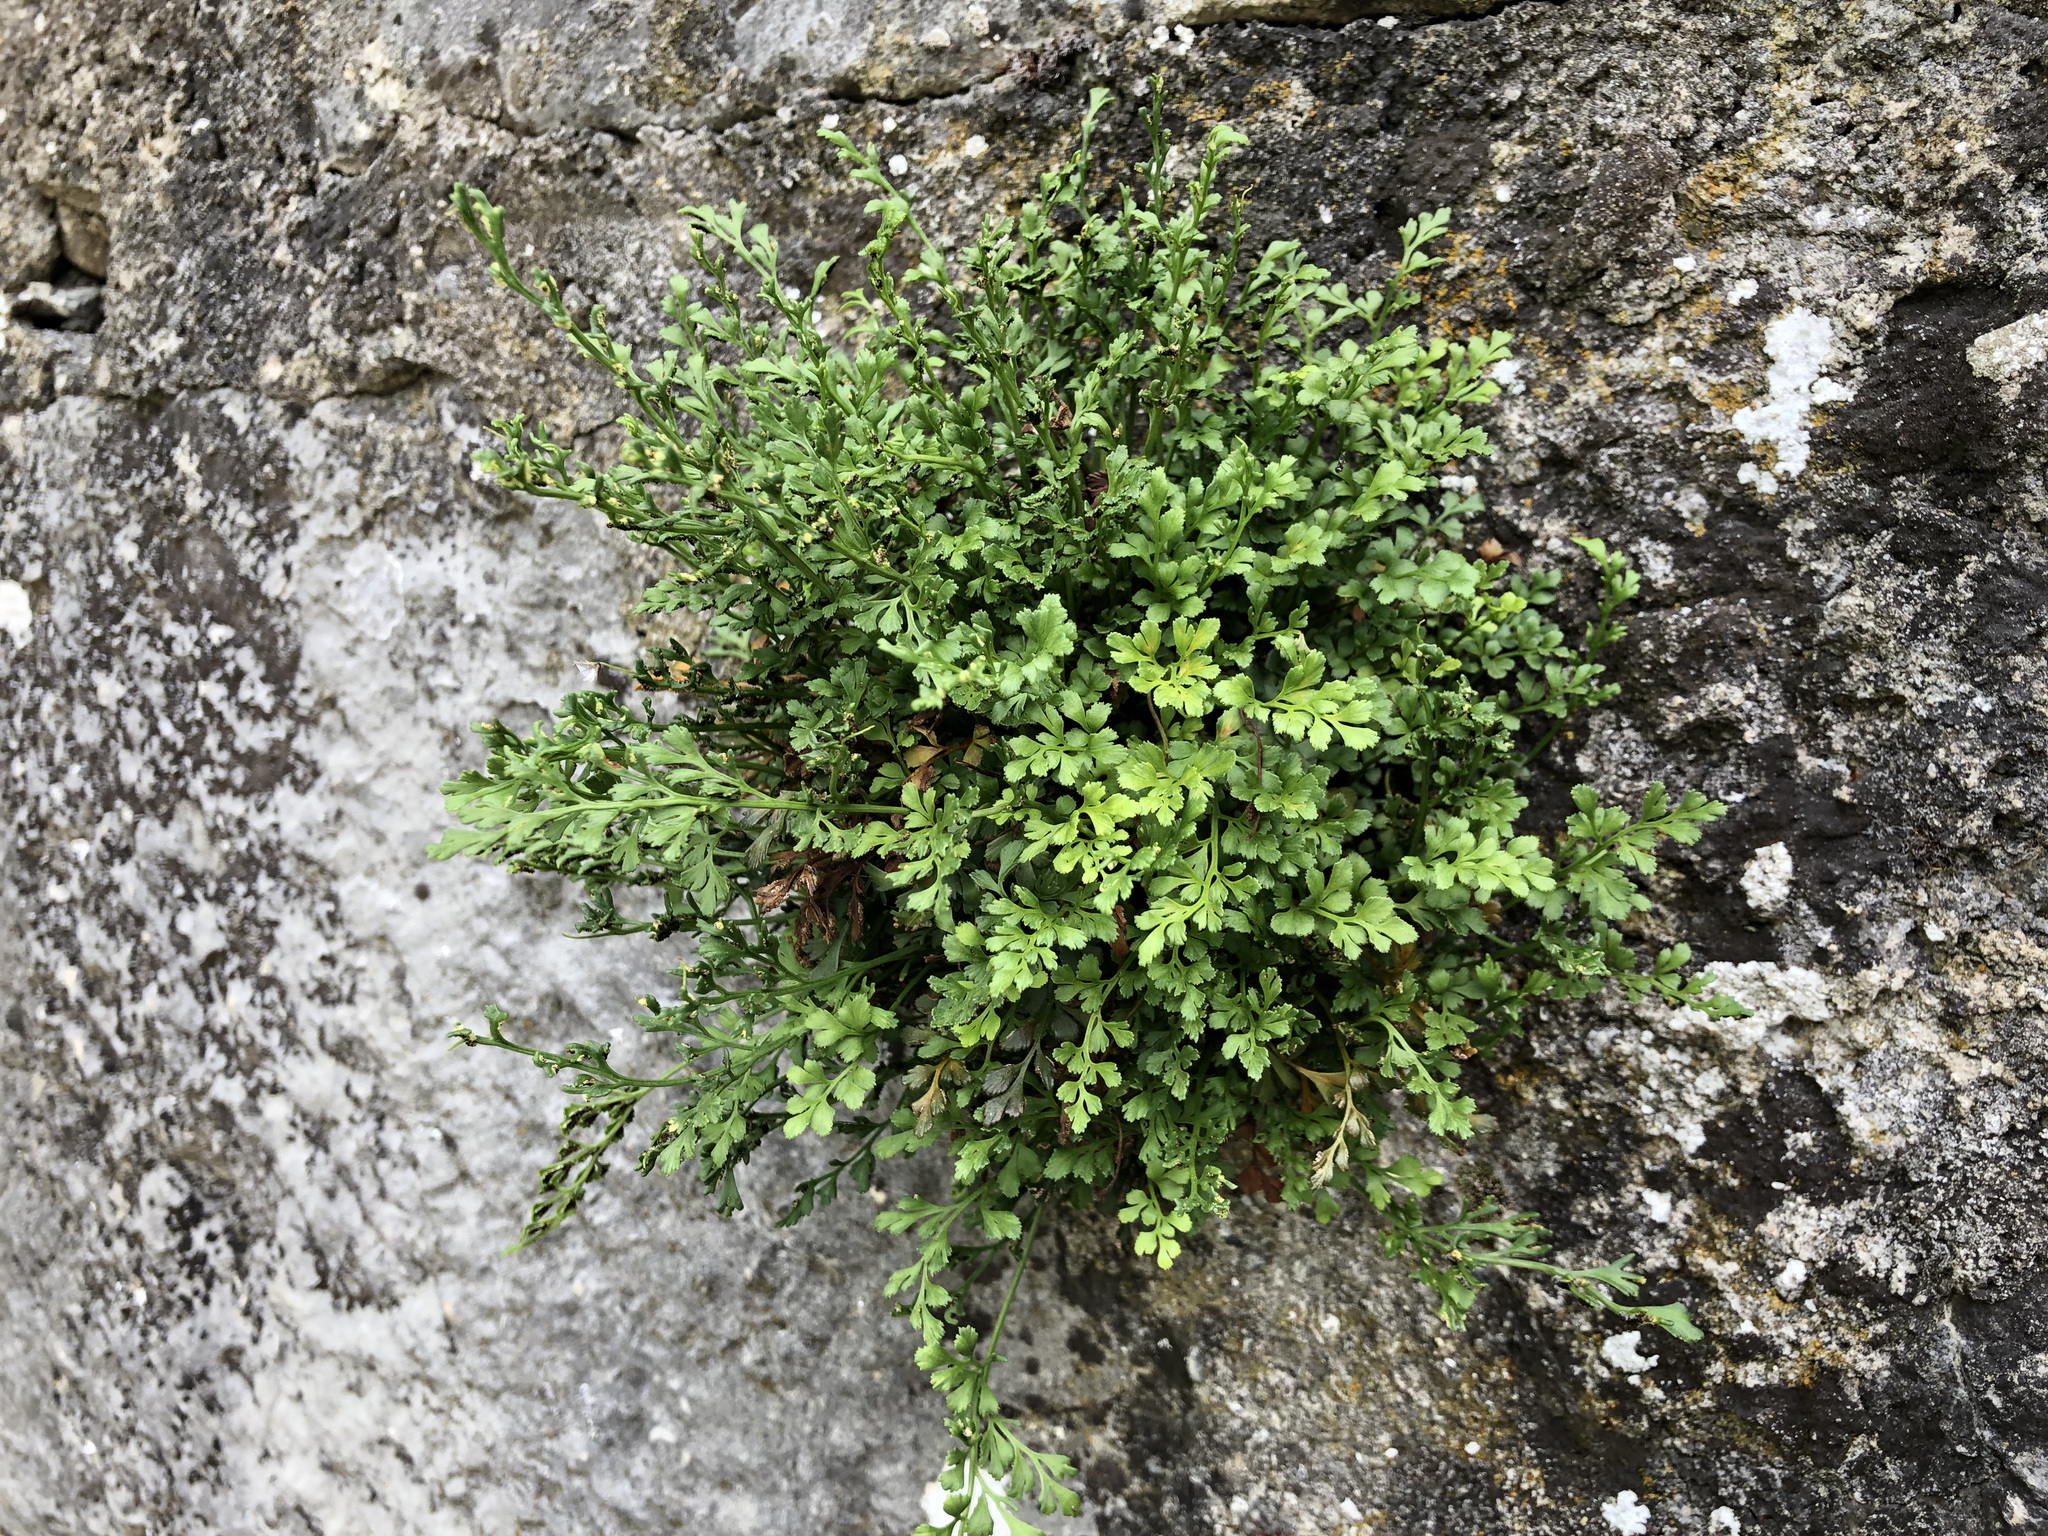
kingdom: Plantae
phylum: Tracheophyta
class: Polypodiopsida
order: Polypodiales
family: Aspleniaceae
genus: Asplenium
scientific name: Asplenium ruta-muraria
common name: Wall-rue
